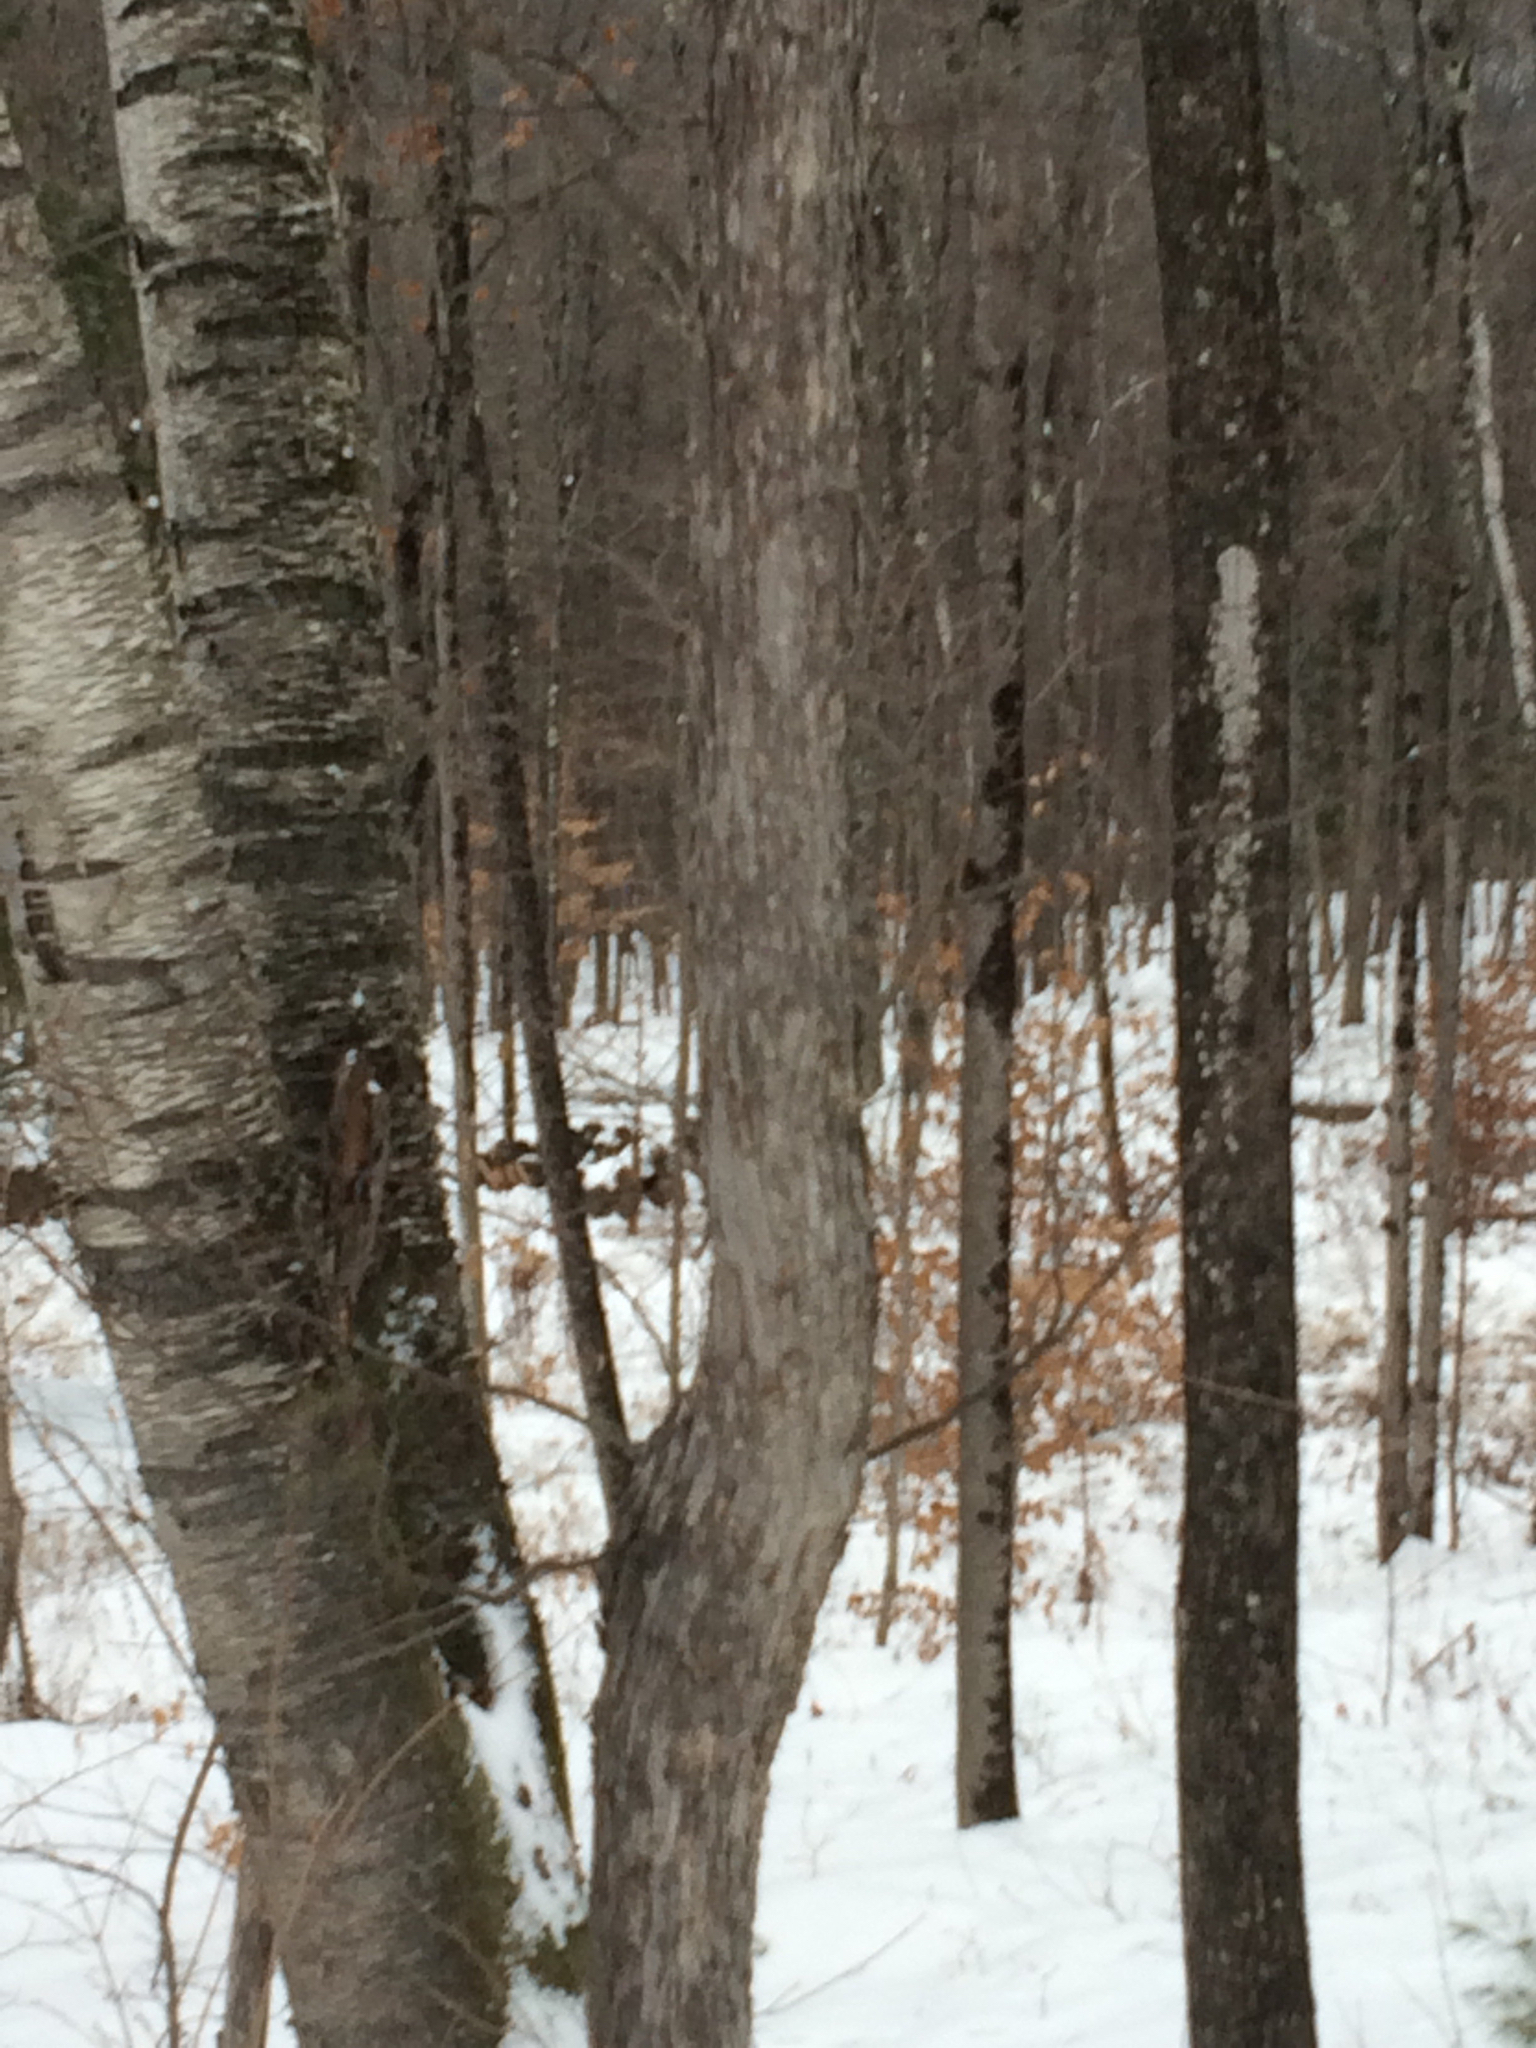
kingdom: Plantae
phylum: Tracheophyta
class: Magnoliopsida
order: Fagales
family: Betulaceae
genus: Ostrya
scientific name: Ostrya virginiana
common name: Ironwood
